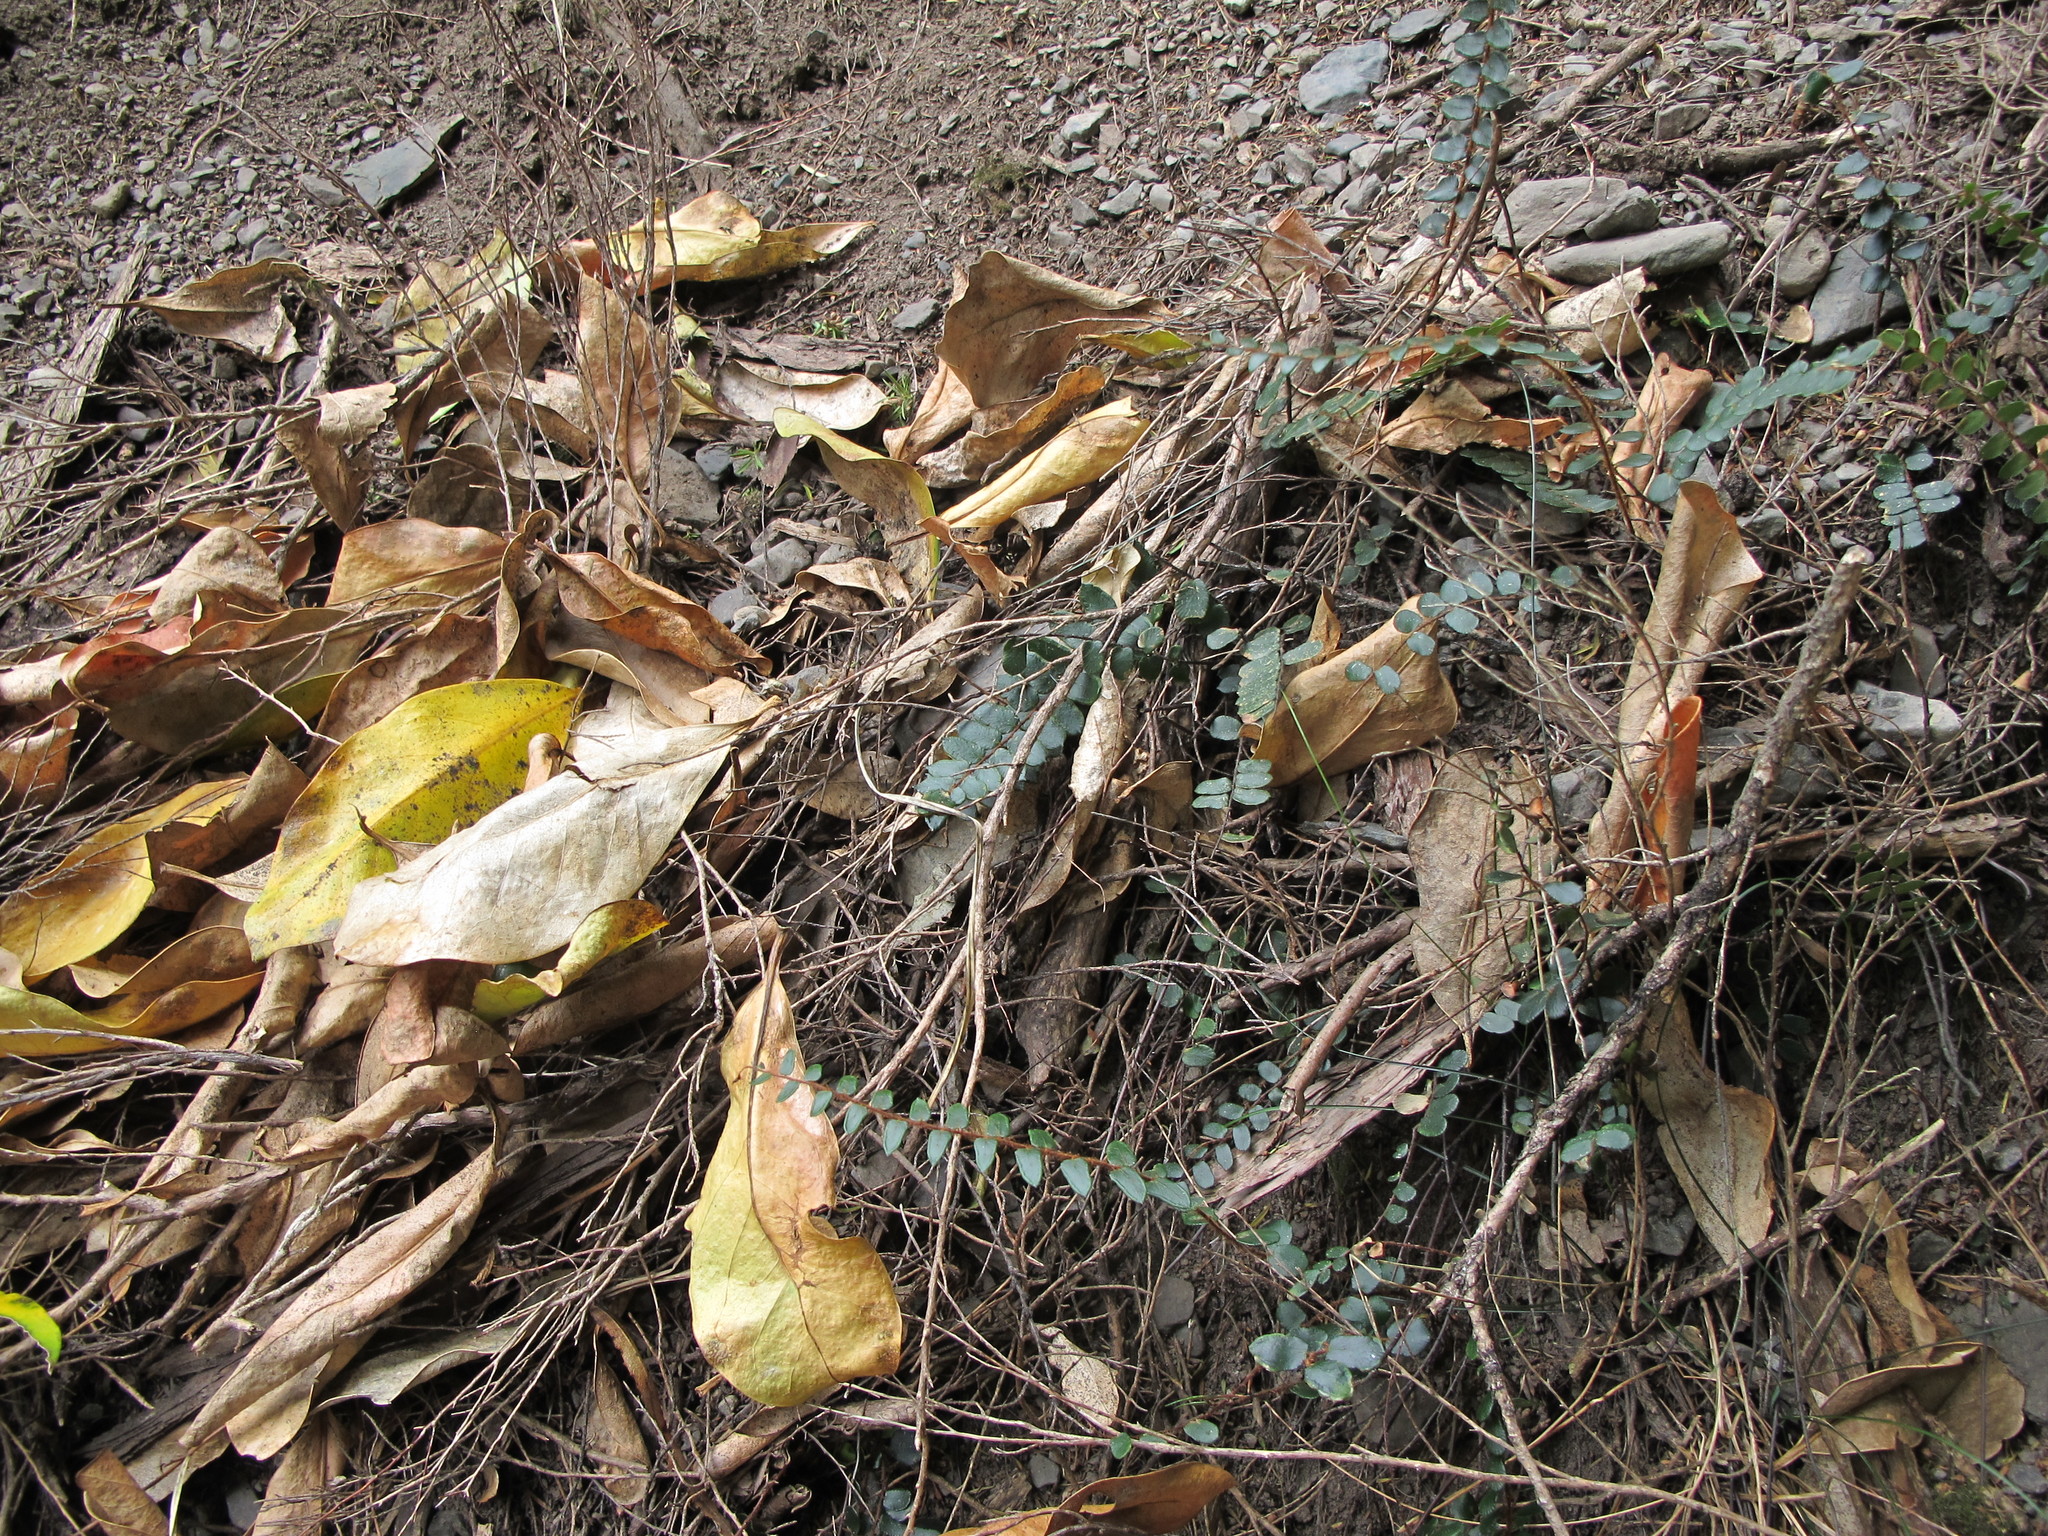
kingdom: Plantae
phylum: Tracheophyta
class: Polypodiopsida
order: Polypodiales
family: Pteridaceae
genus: Pellaea
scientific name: Pellaea rotundifolia
